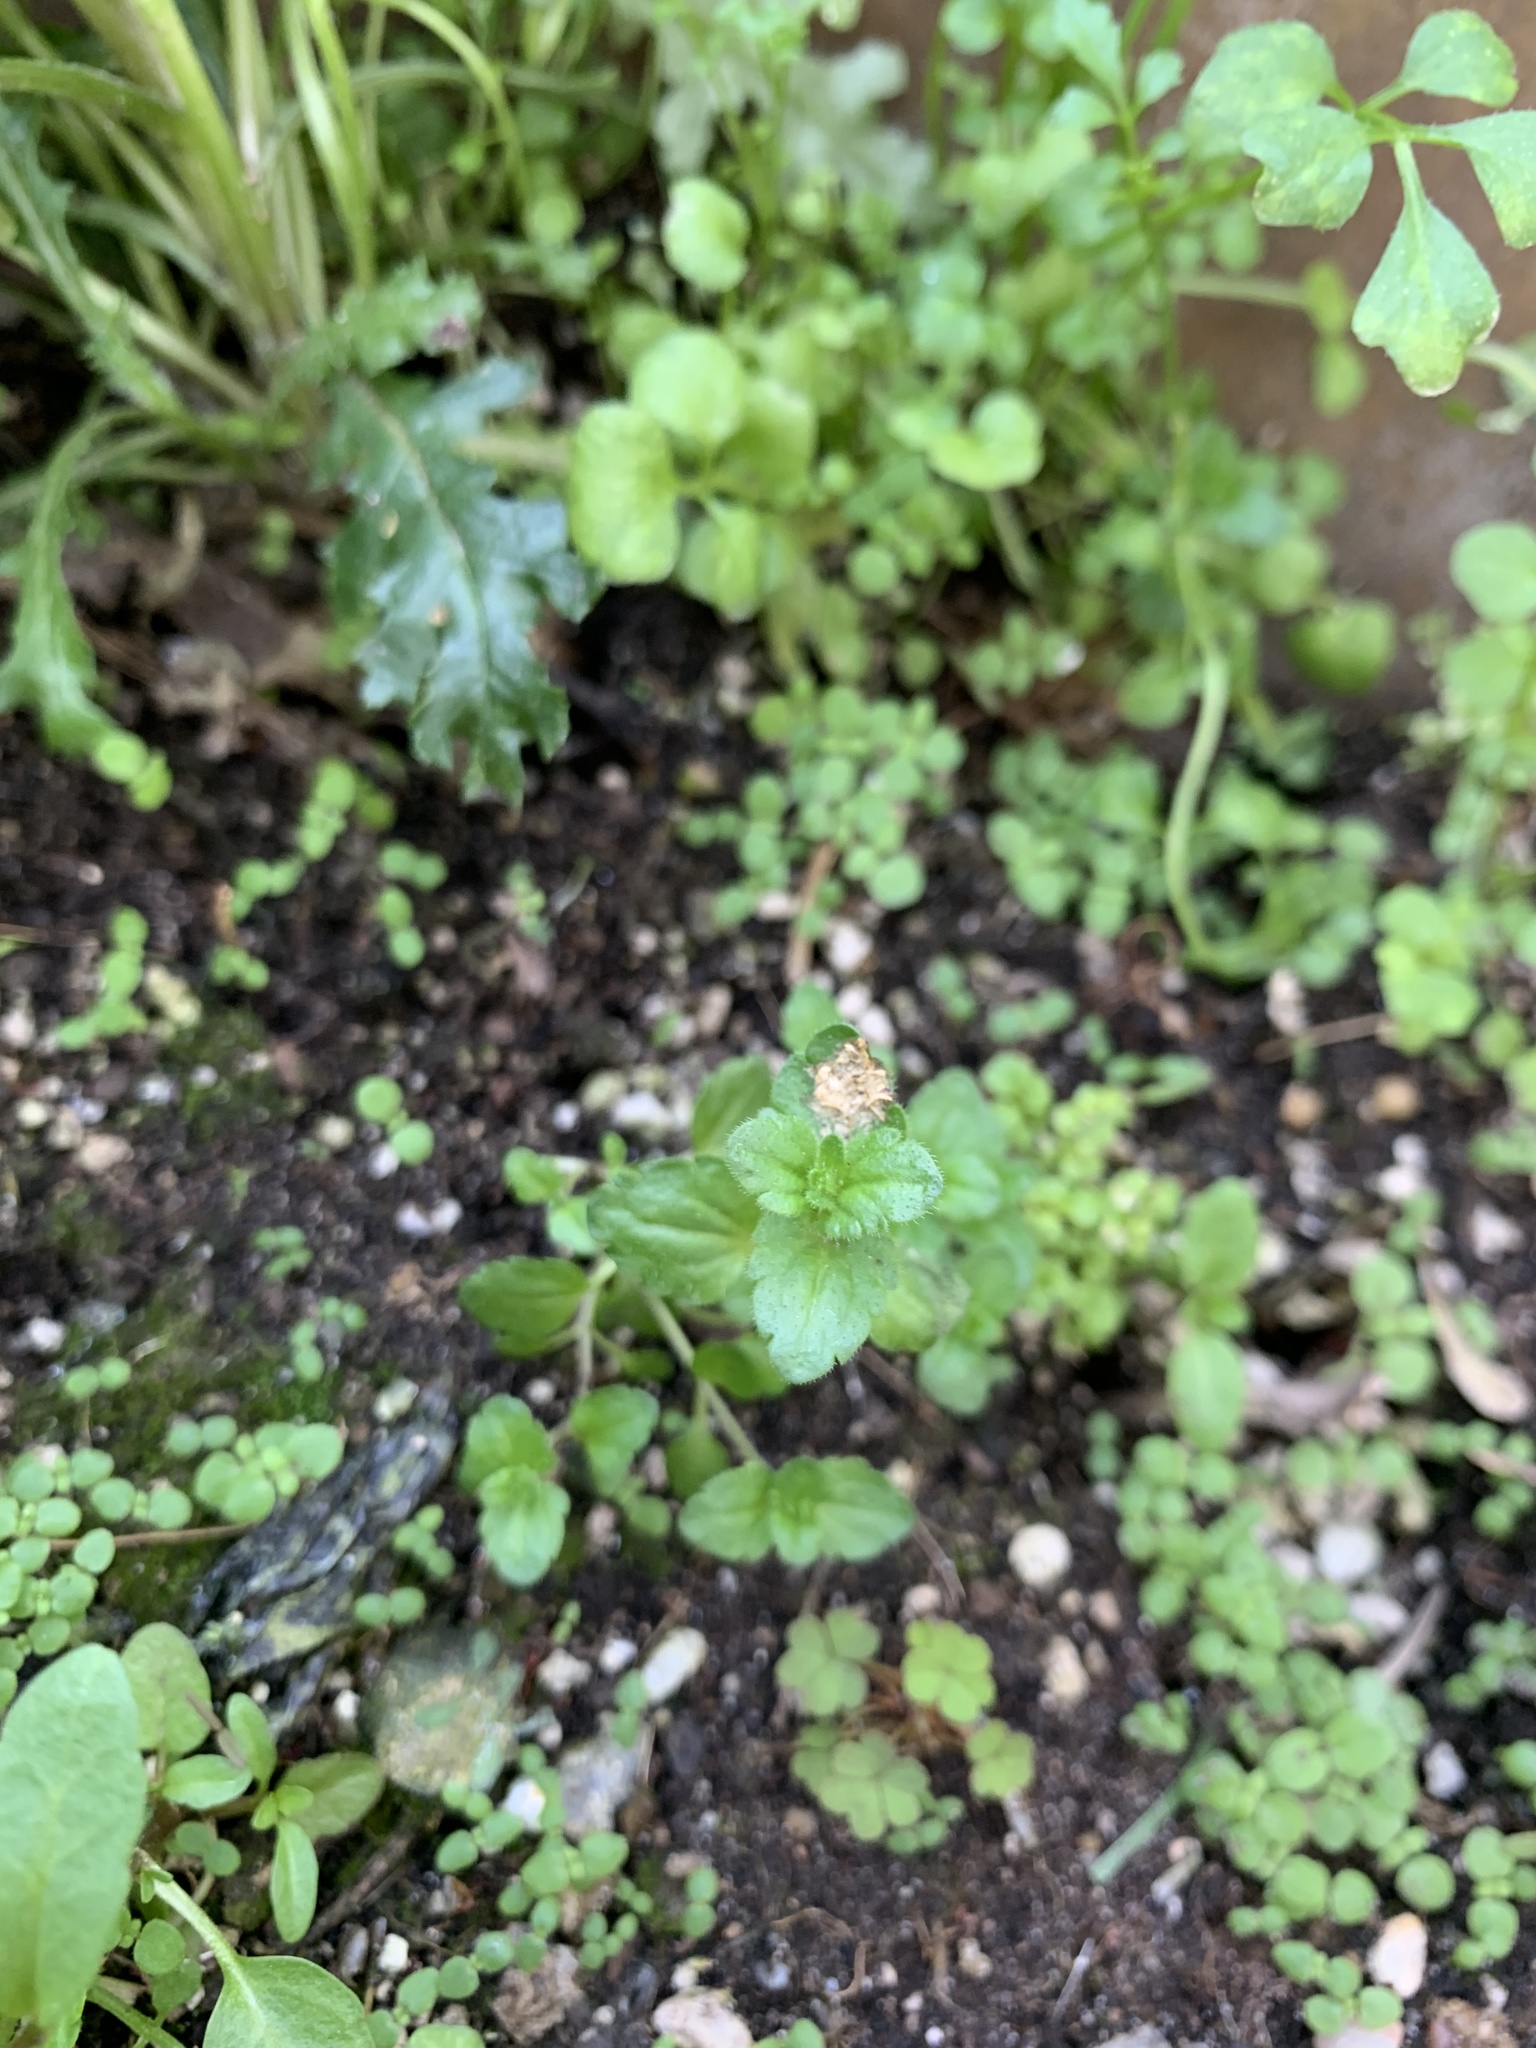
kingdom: Plantae
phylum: Tracheophyta
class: Magnoliopsida
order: Lamiales
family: Plantaginaceae
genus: Veronica
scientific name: Veronica arvensis
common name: Corn speedwell
